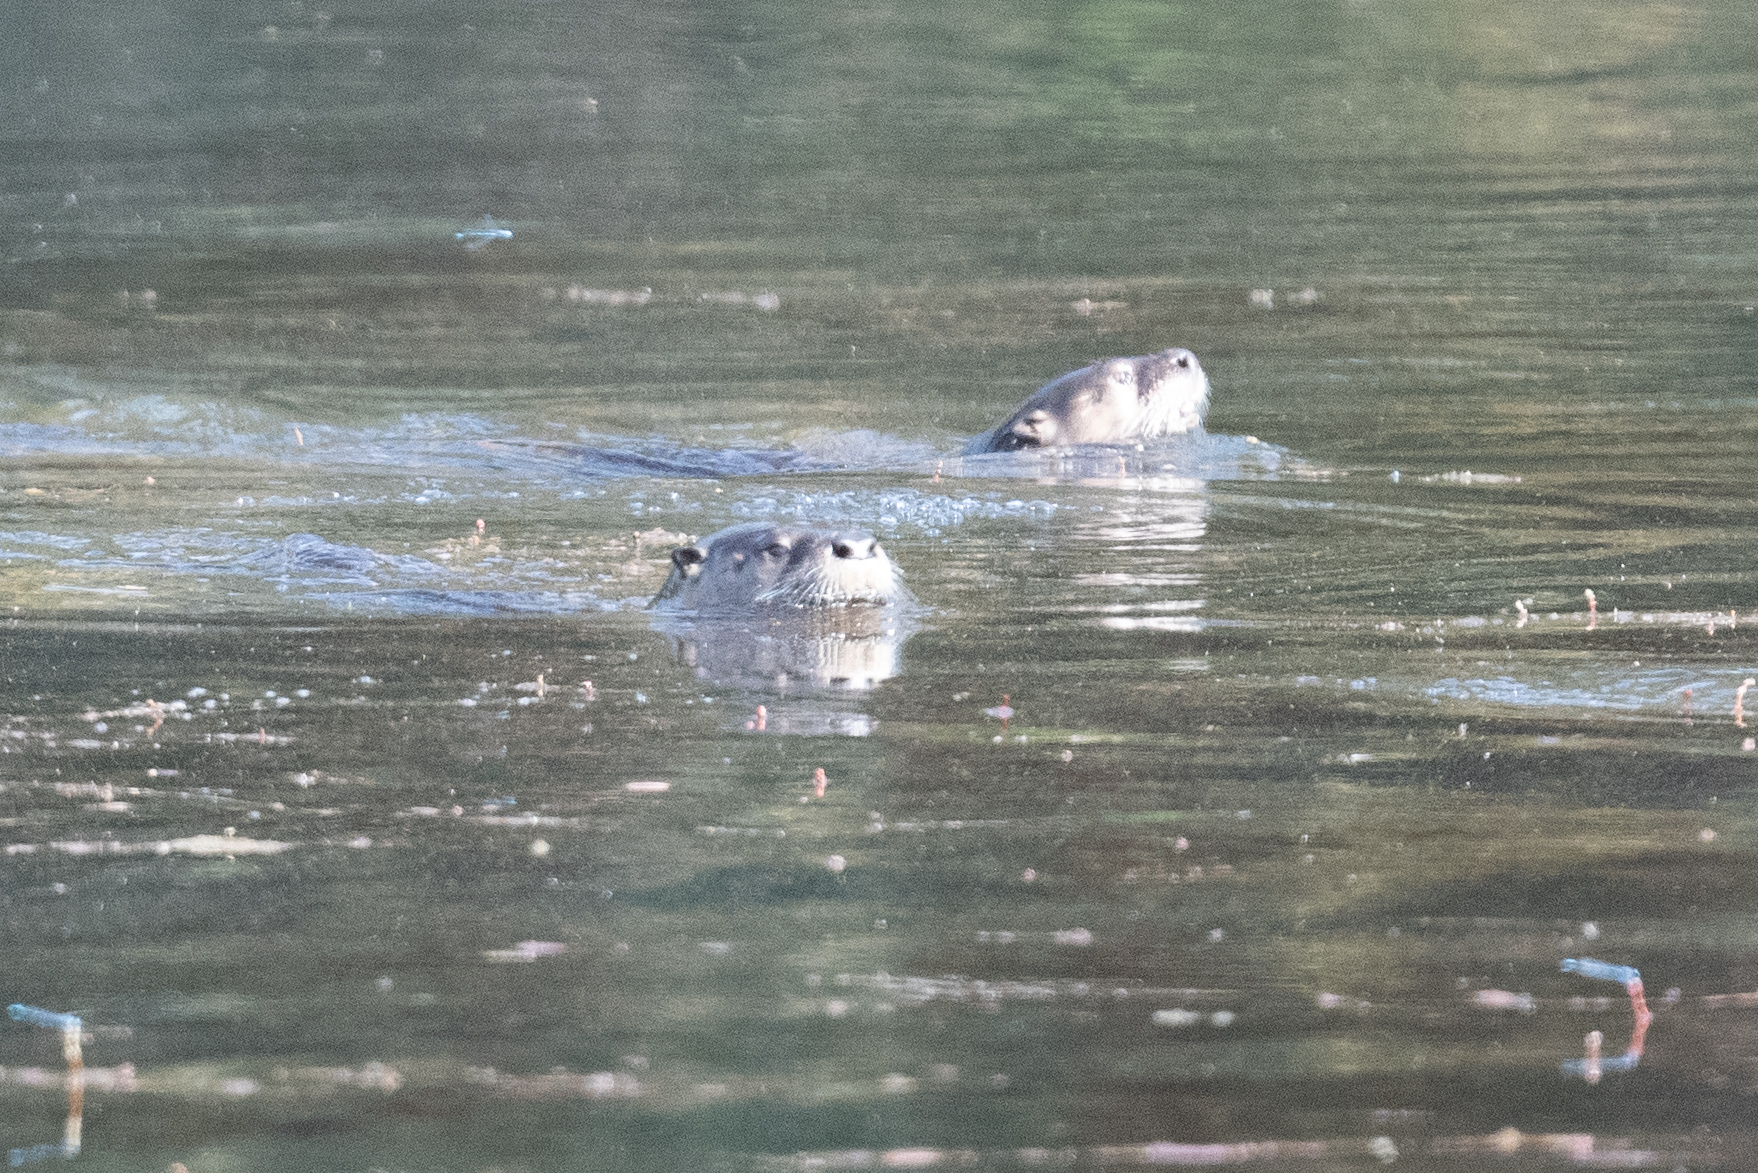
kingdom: Animalia
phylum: Chordata
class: Mammalia
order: Carnivora
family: Mustelidae
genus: Lontra
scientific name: Lontra canadensis
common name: North american river otter
